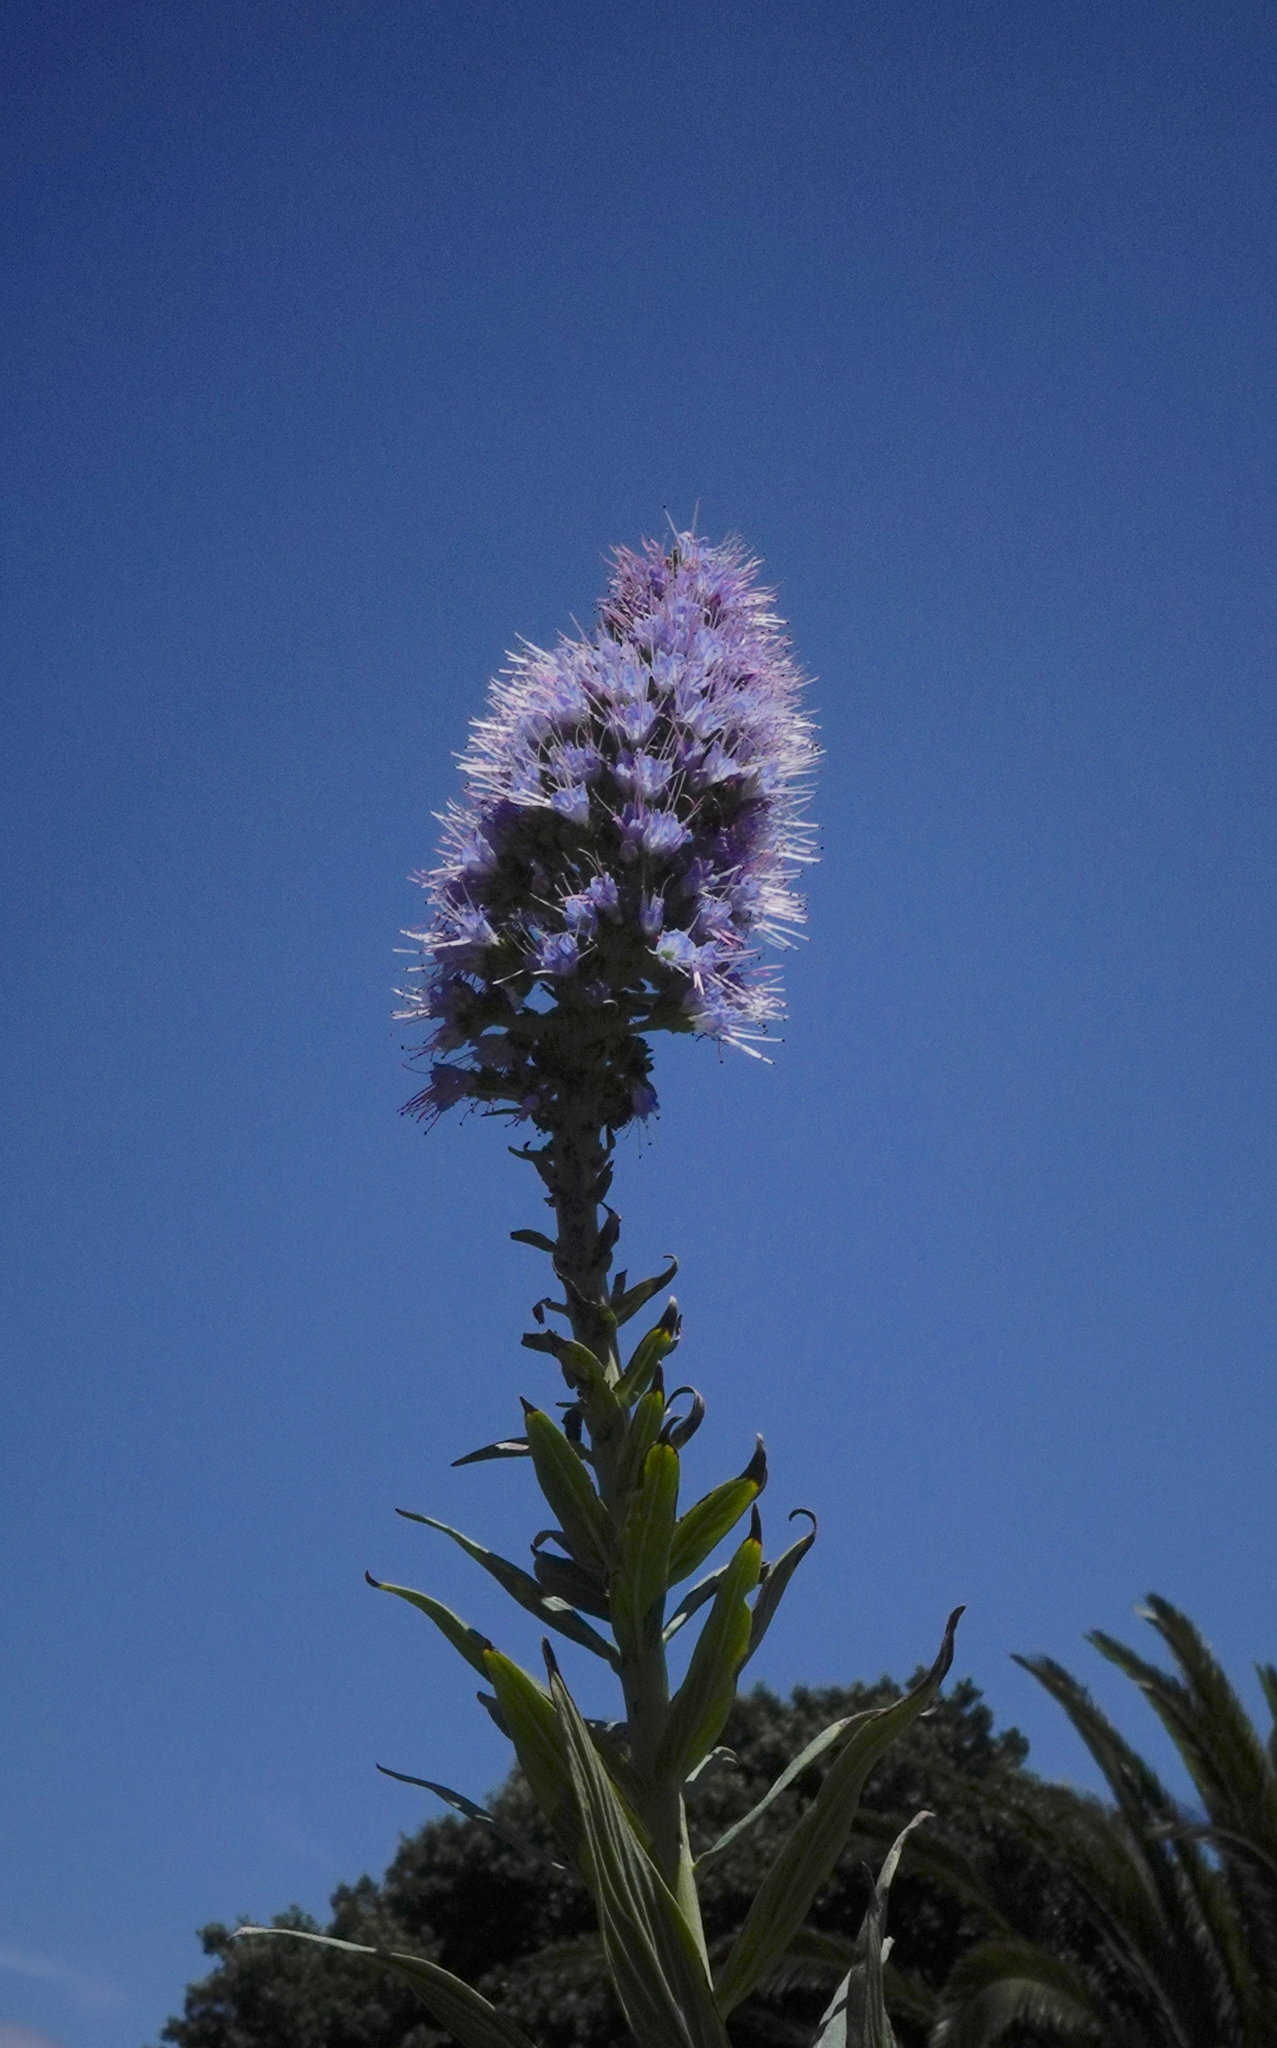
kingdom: Plantae
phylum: Tracheophyta
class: Magnoliopsida
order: Boraginales
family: Boraginaceae
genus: Echium
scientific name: Echium nervosum
